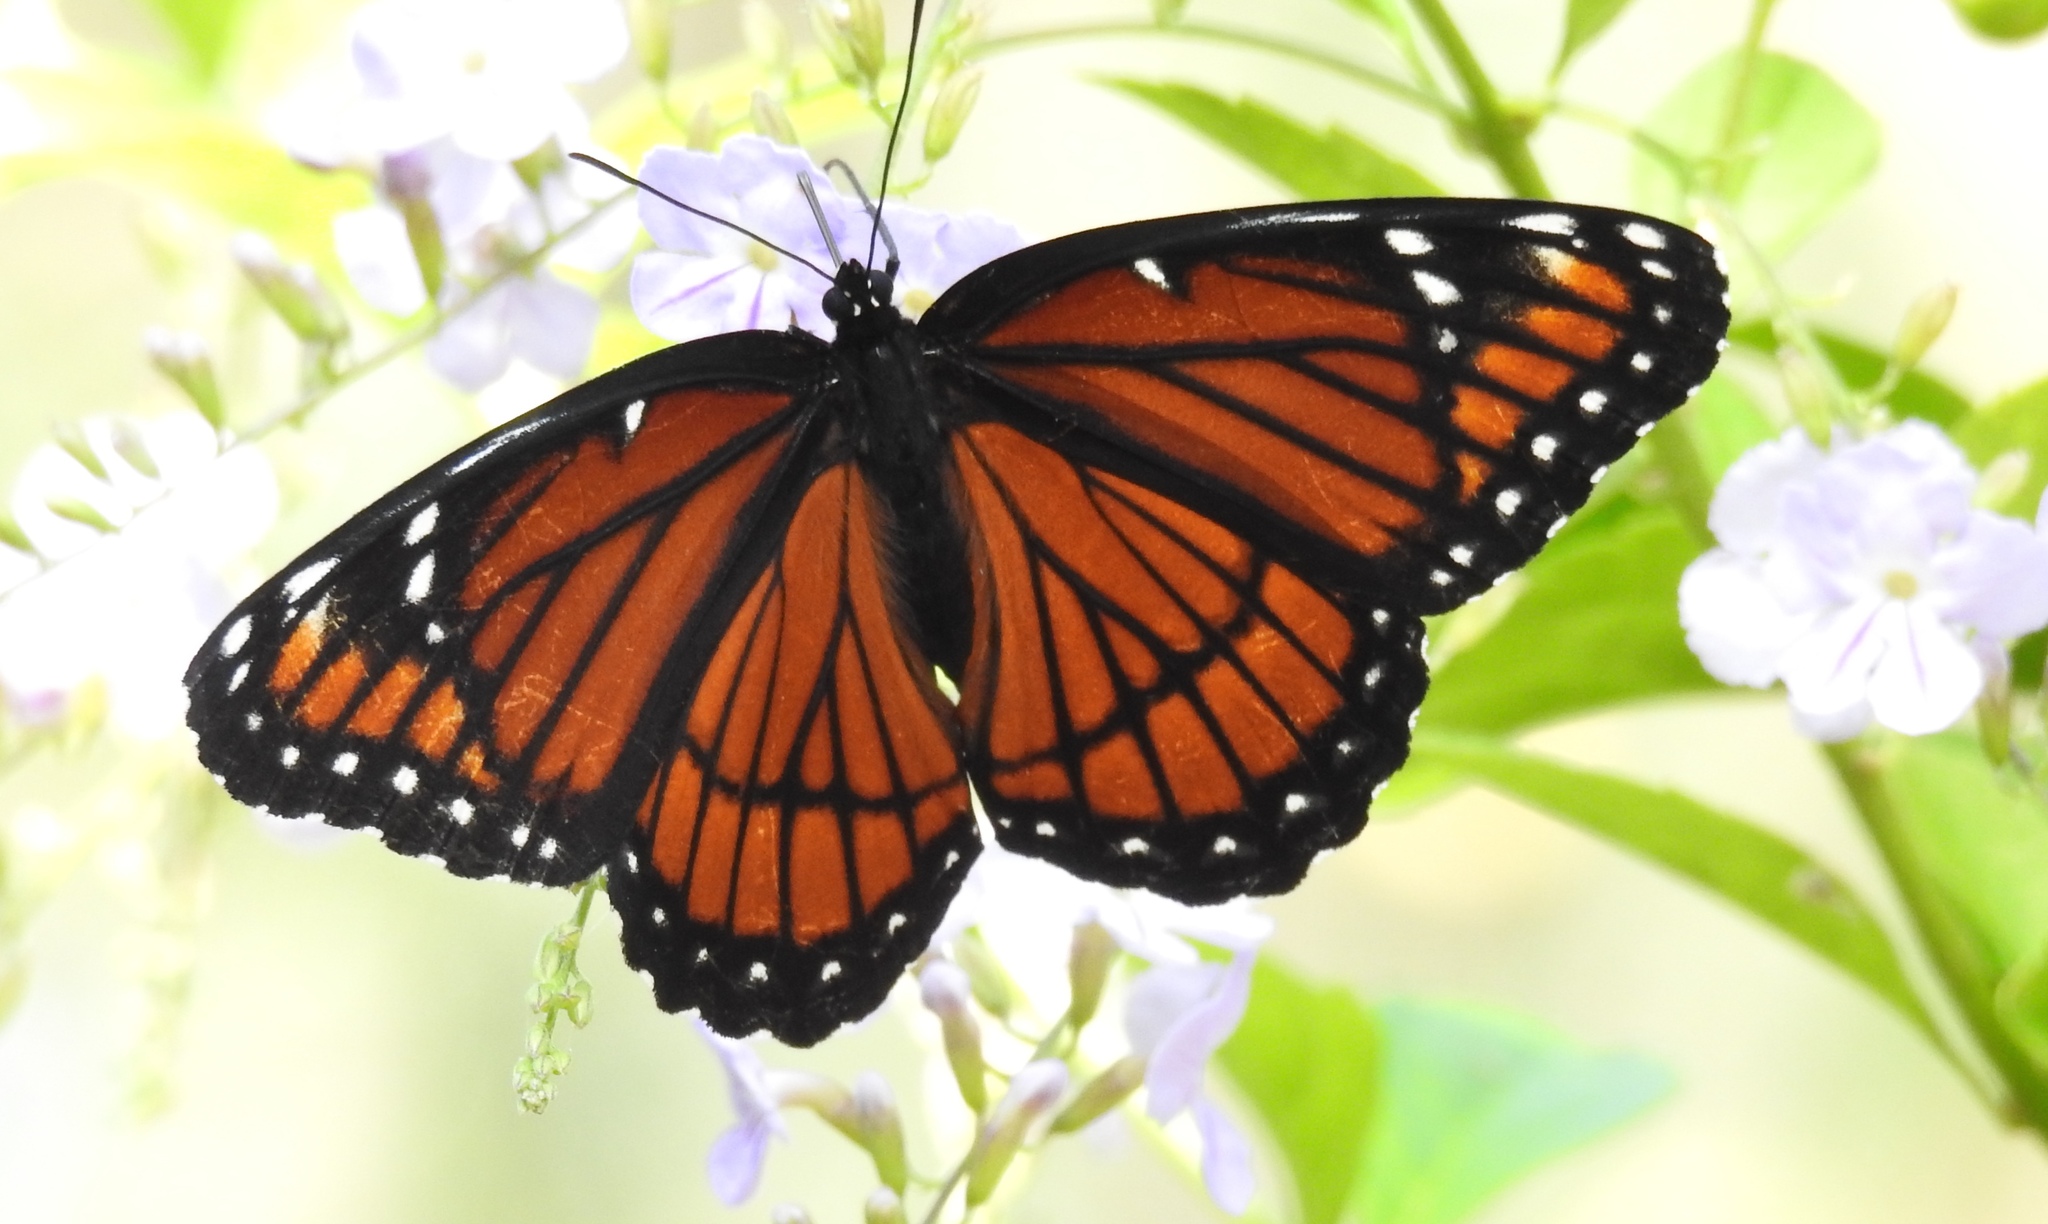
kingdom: Animalia
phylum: Arthropoda
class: Insecta
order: Lepidoptera
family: Nymphalidae
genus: Limenitis
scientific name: Limenitis archippus
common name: Viceroy
